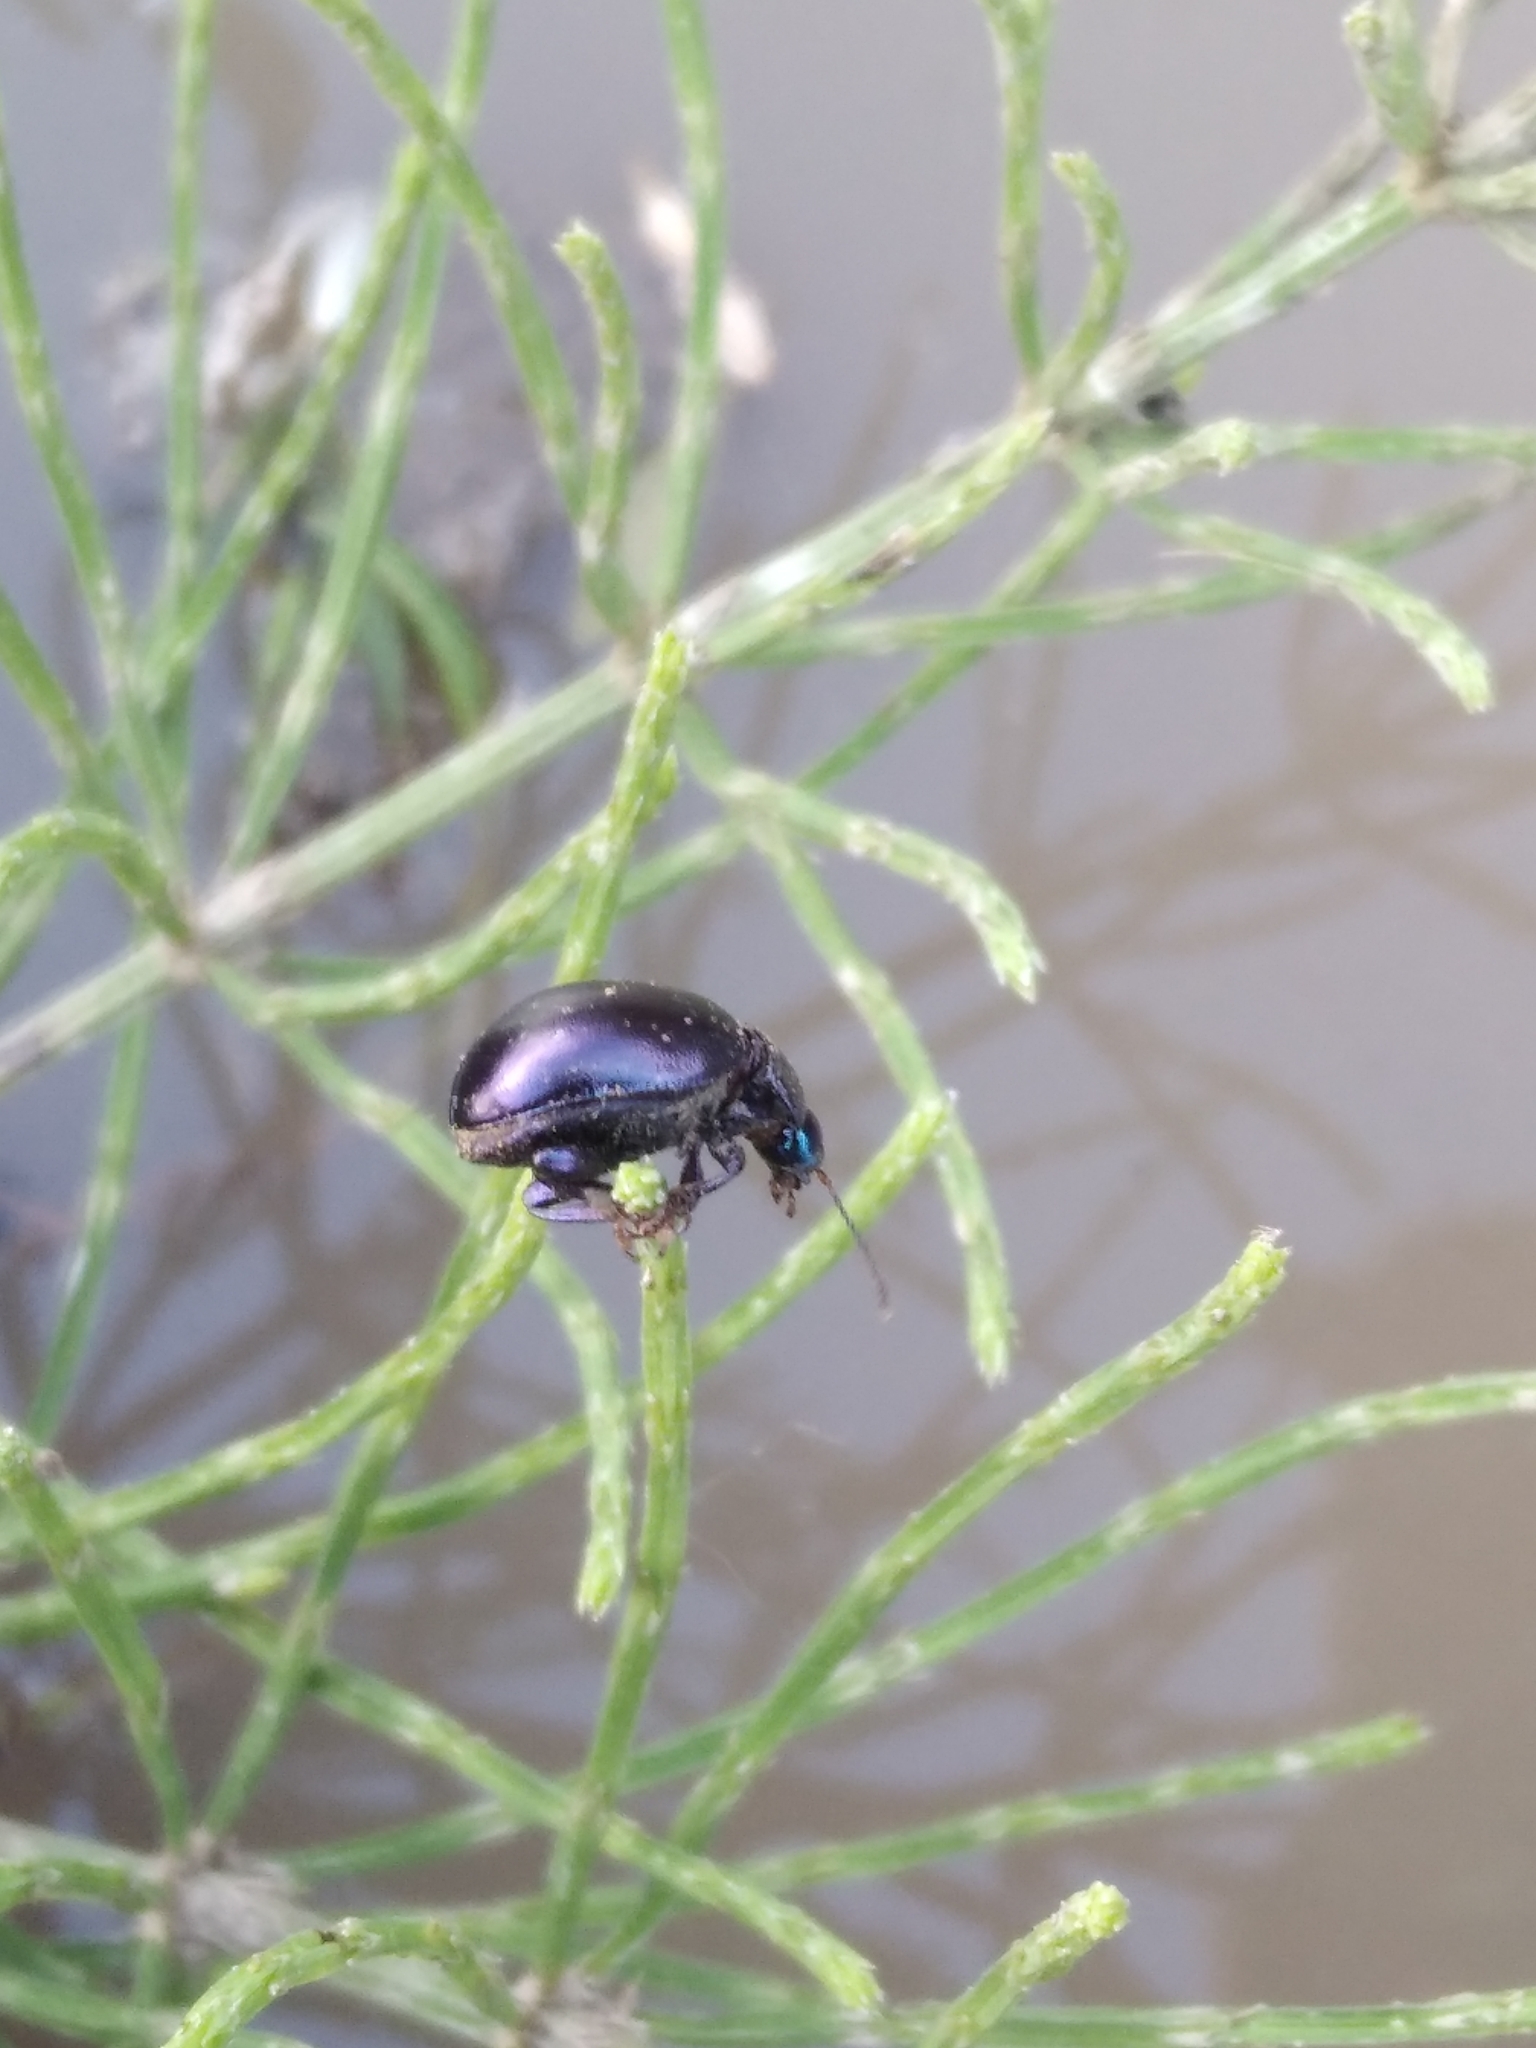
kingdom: Animalia
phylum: Arthropoda
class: Insecta
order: Coleoptera
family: Chrysomelidae
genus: Chrysolina
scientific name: Chrysolina sturmi
